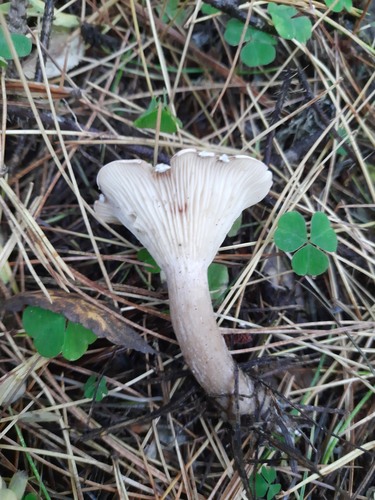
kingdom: Fungi
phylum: Basidiomycota
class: Agaricomycetes
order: Agaricales
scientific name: Agaricales
